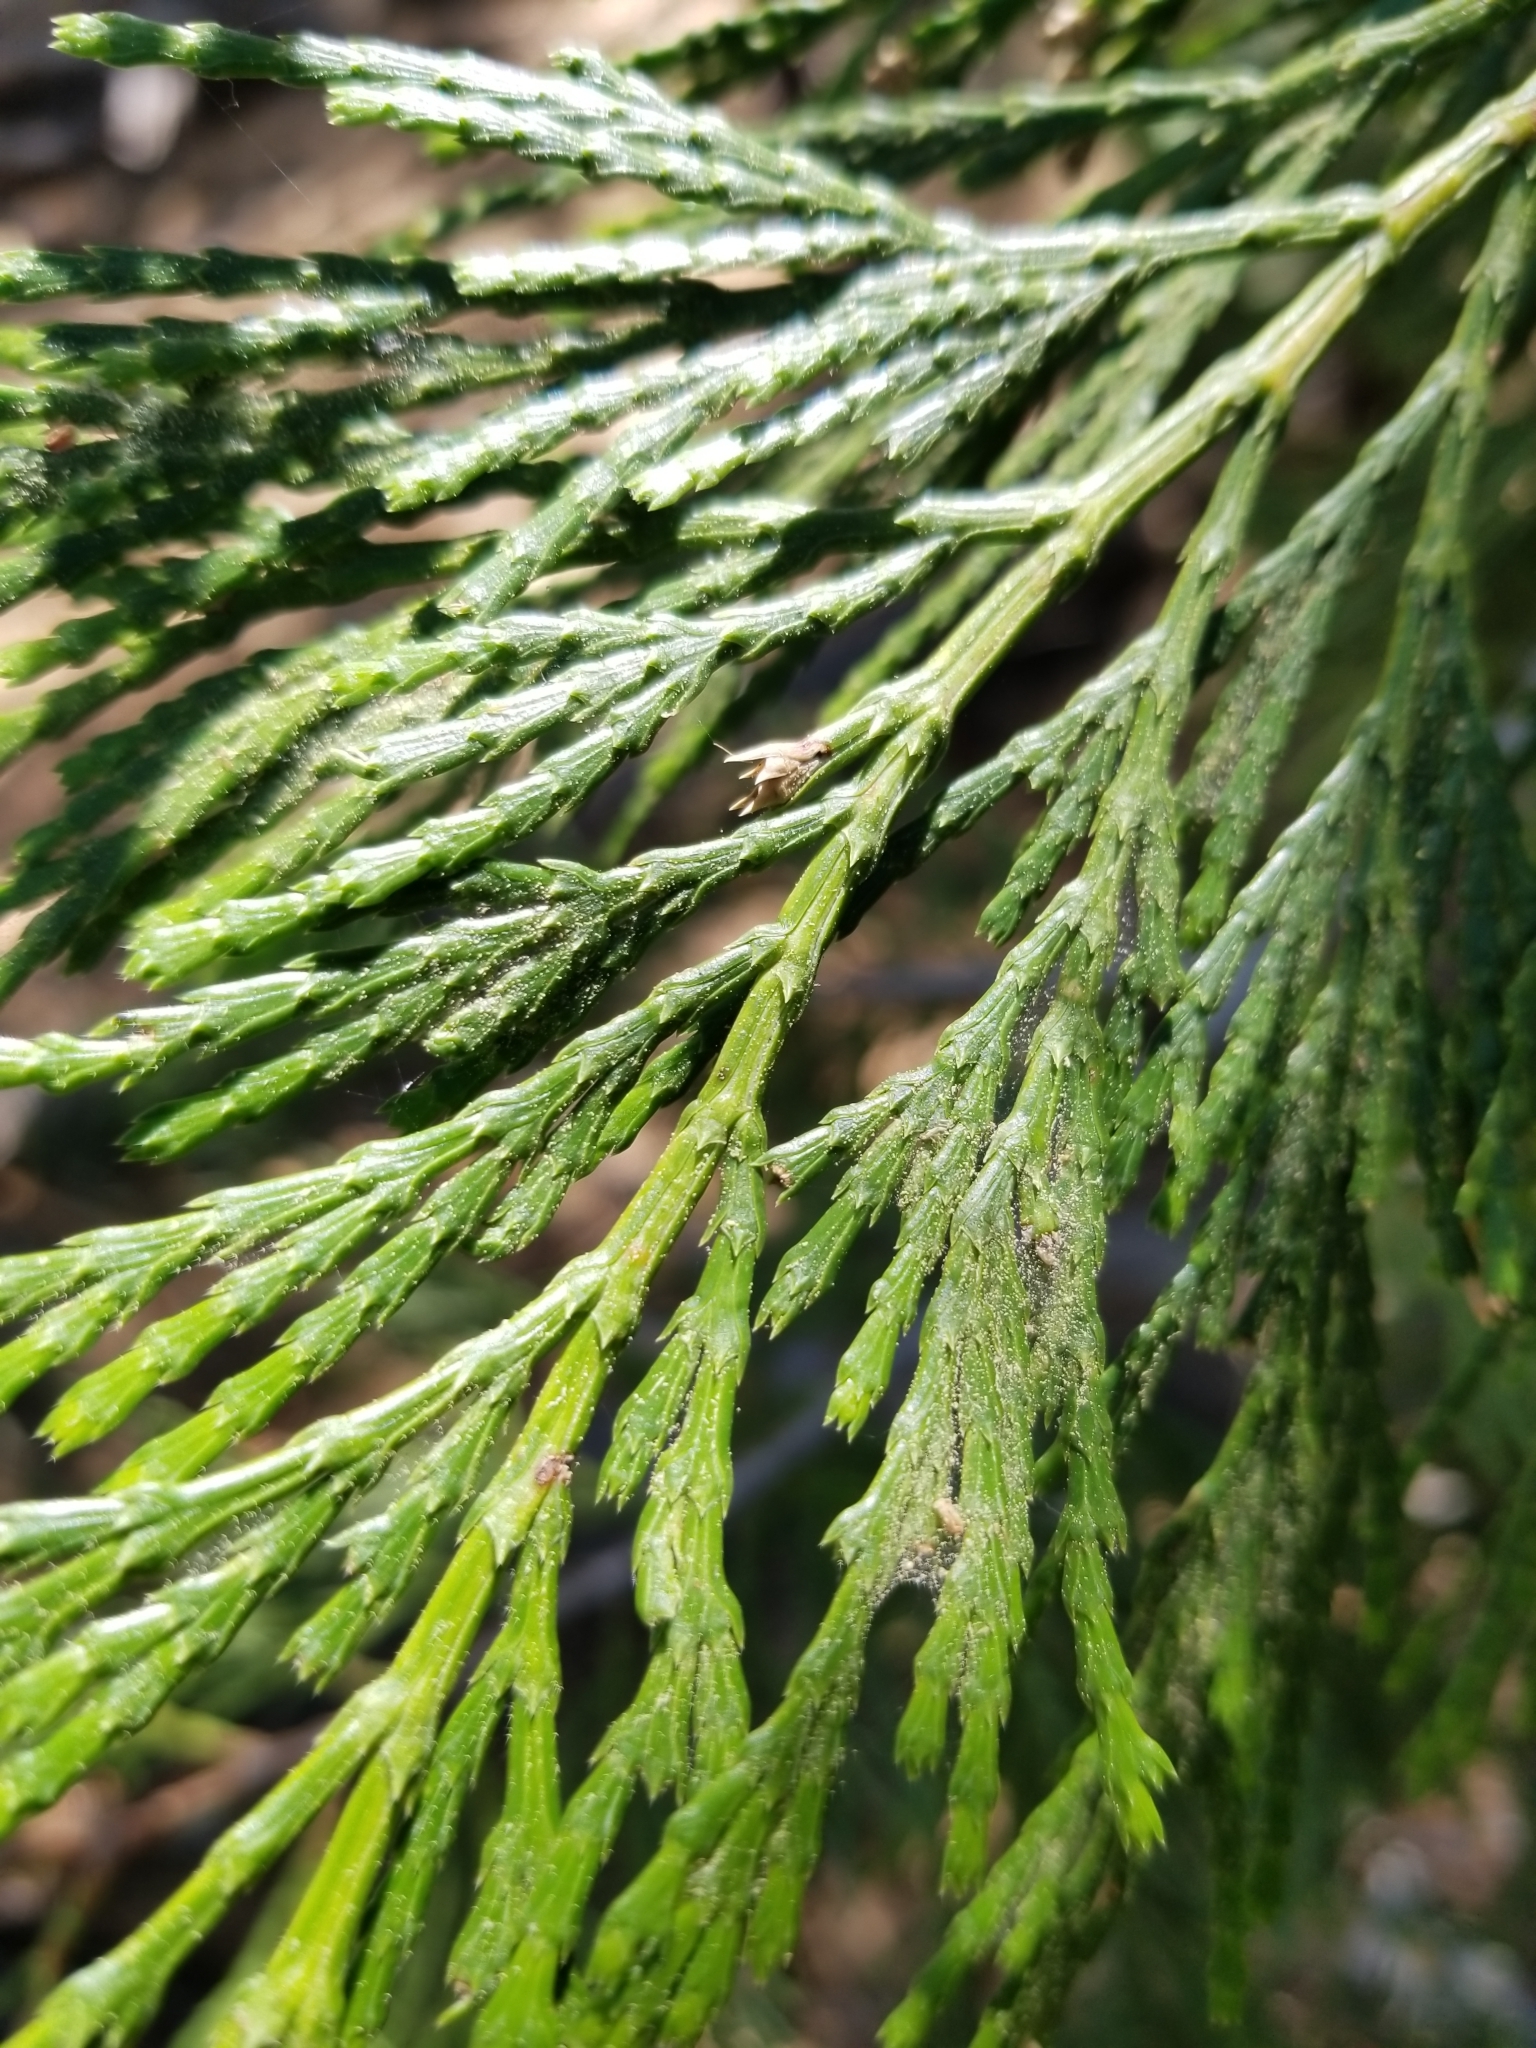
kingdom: Plantae
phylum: Tracheophyta
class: Pinopsida
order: Pinales
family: Cupressaceae
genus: Calocedrus
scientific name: Calocedrus decurrens
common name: Californian incense-cedar
